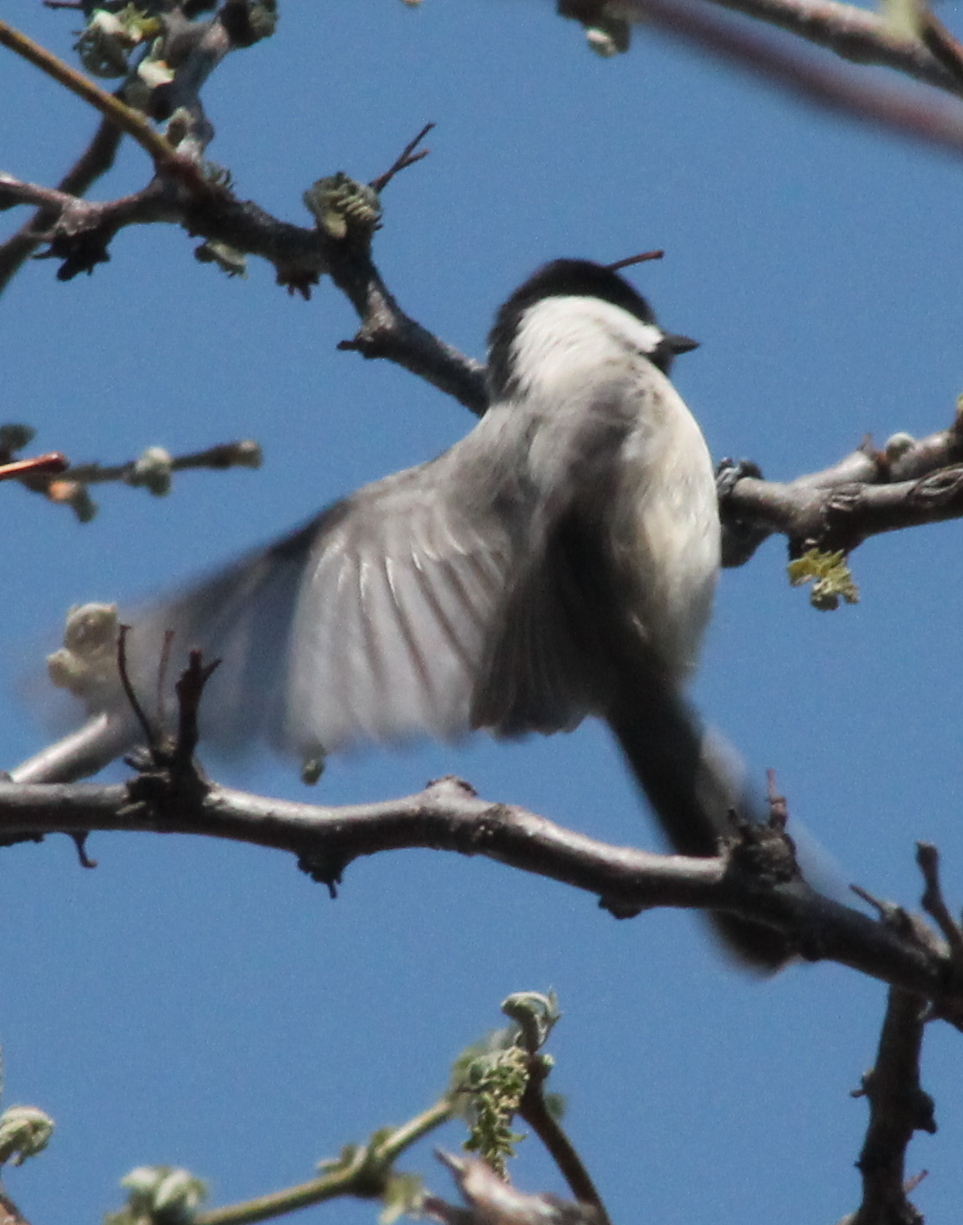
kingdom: Animalia
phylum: Chordata
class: Aves
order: Passeriformes
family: Paridae
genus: Poecile
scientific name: Poecile carolinensis
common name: Carolina chickadee
